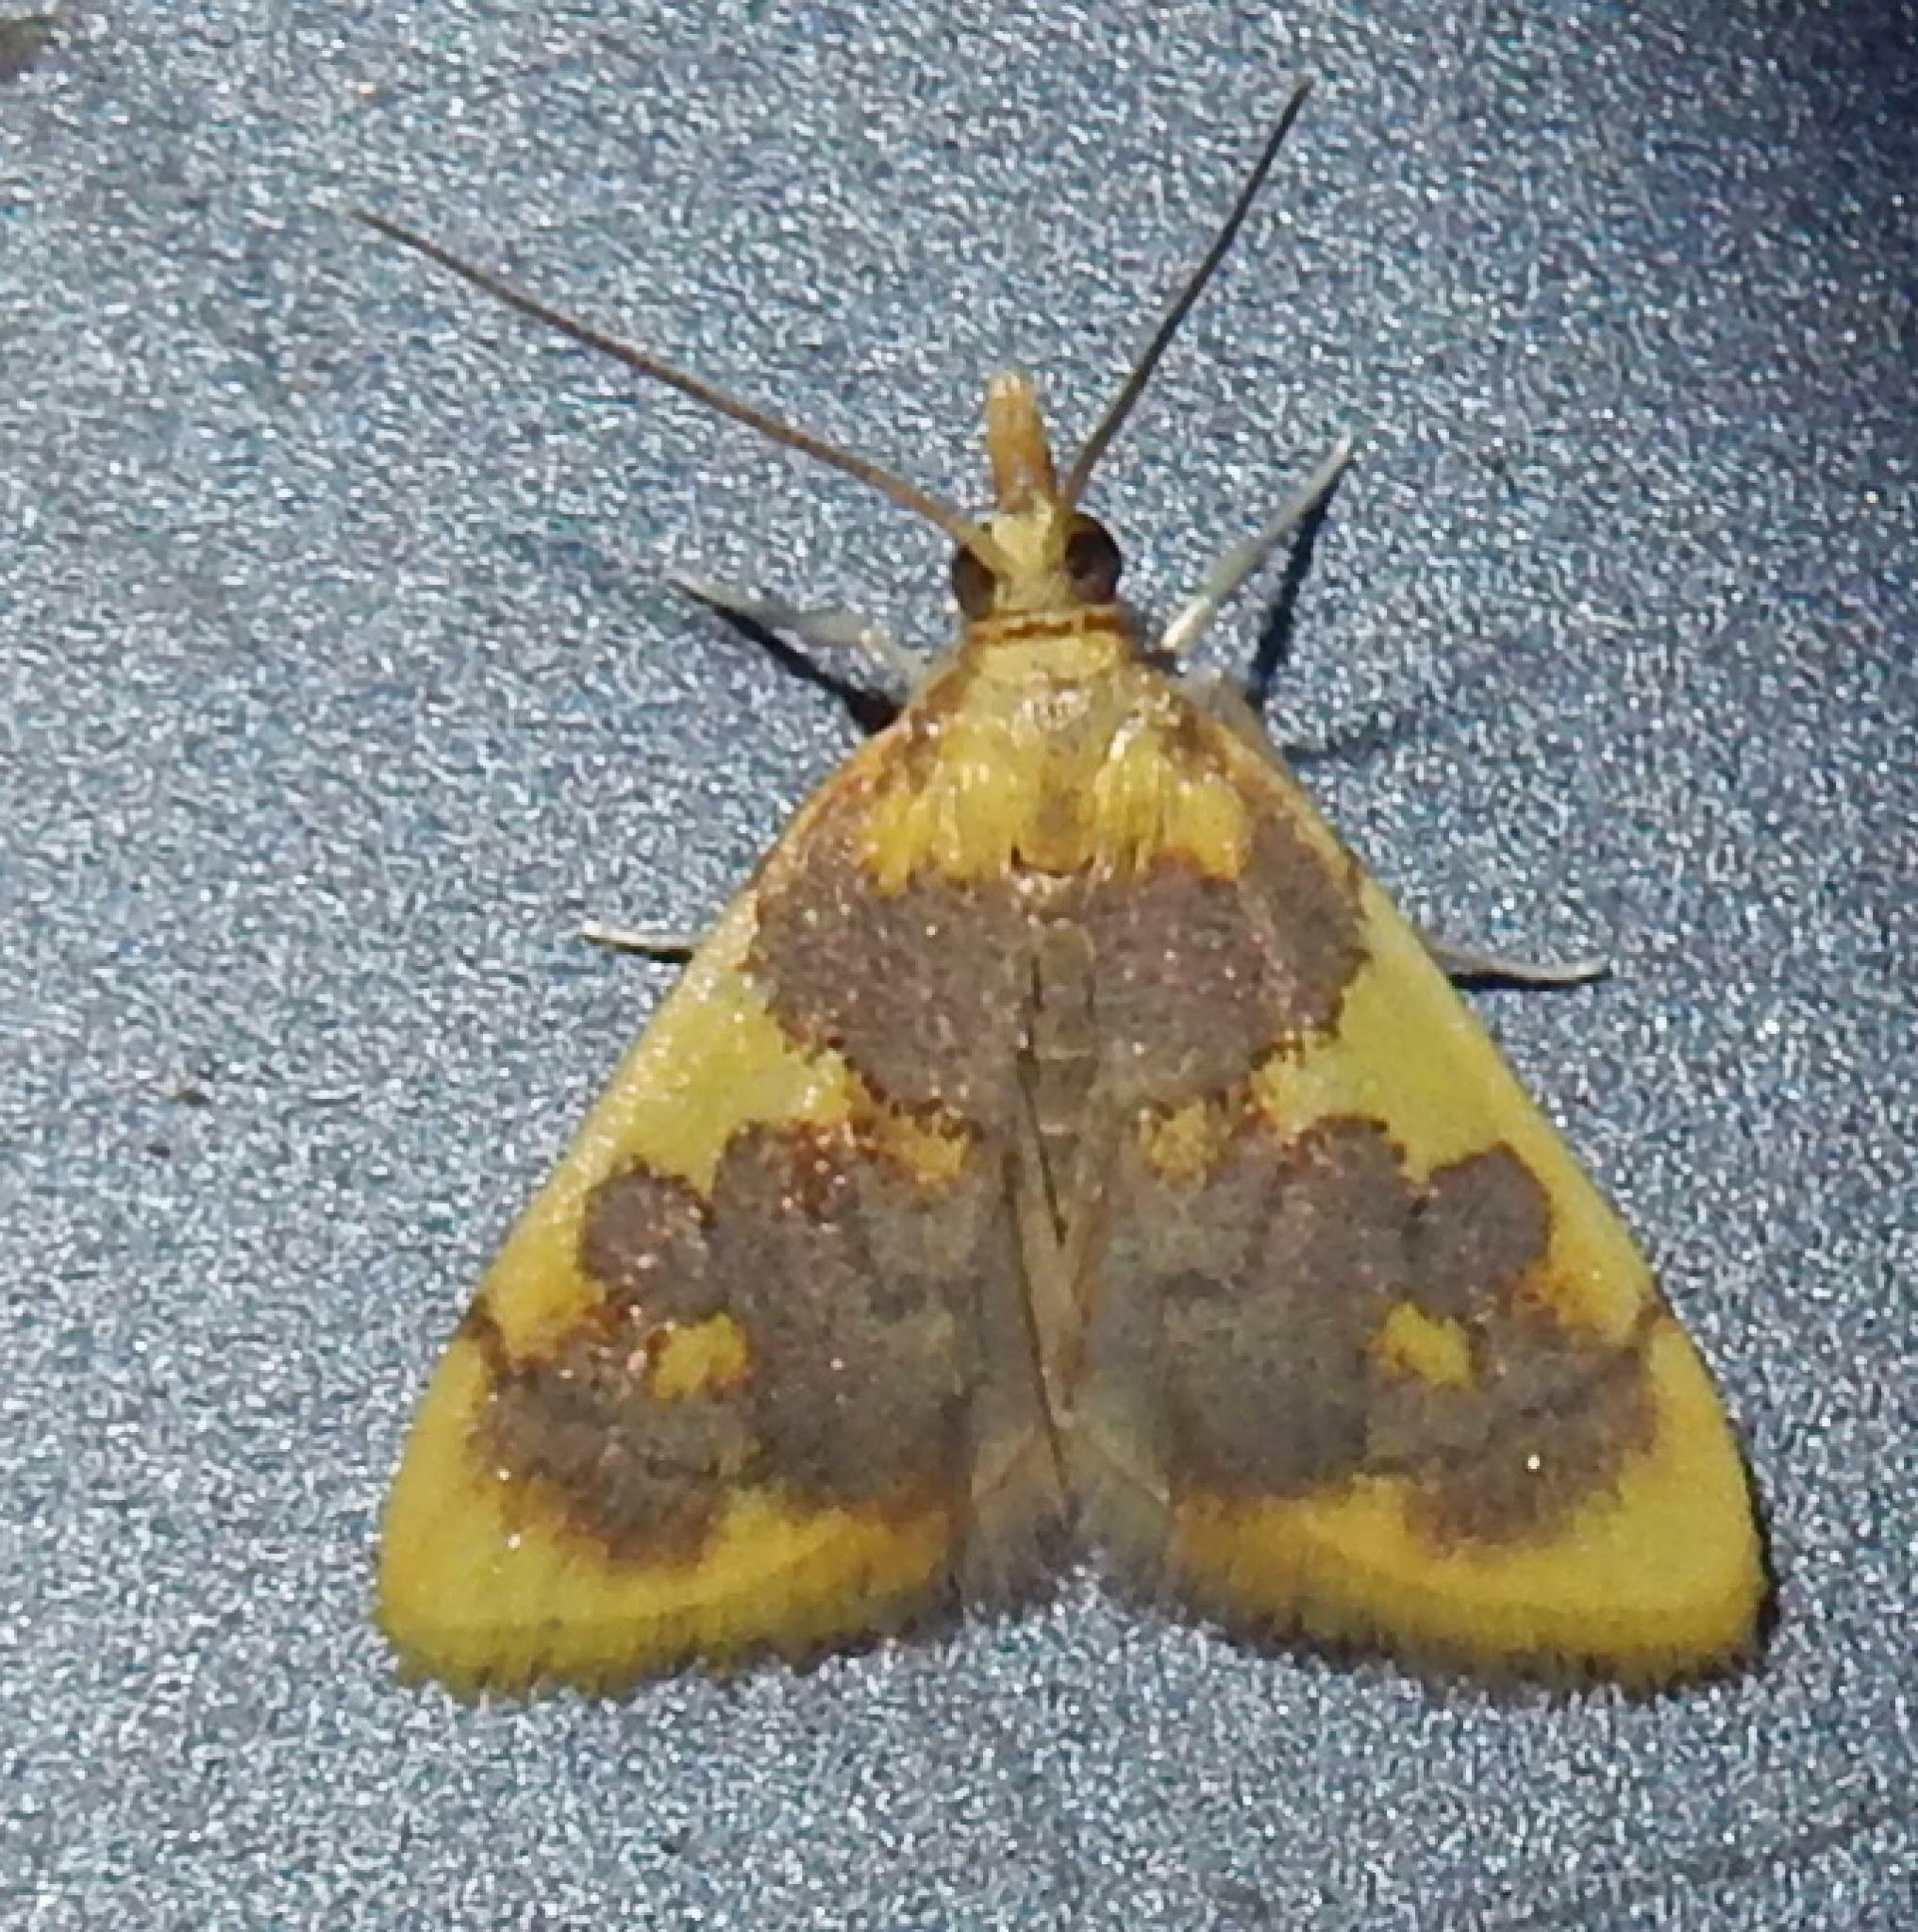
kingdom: Animalia
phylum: Arthropoda
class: Insecta
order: Lepidoptera
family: Crambidae
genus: Thliptoceras
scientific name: Thliptoceras xanthocraspia
